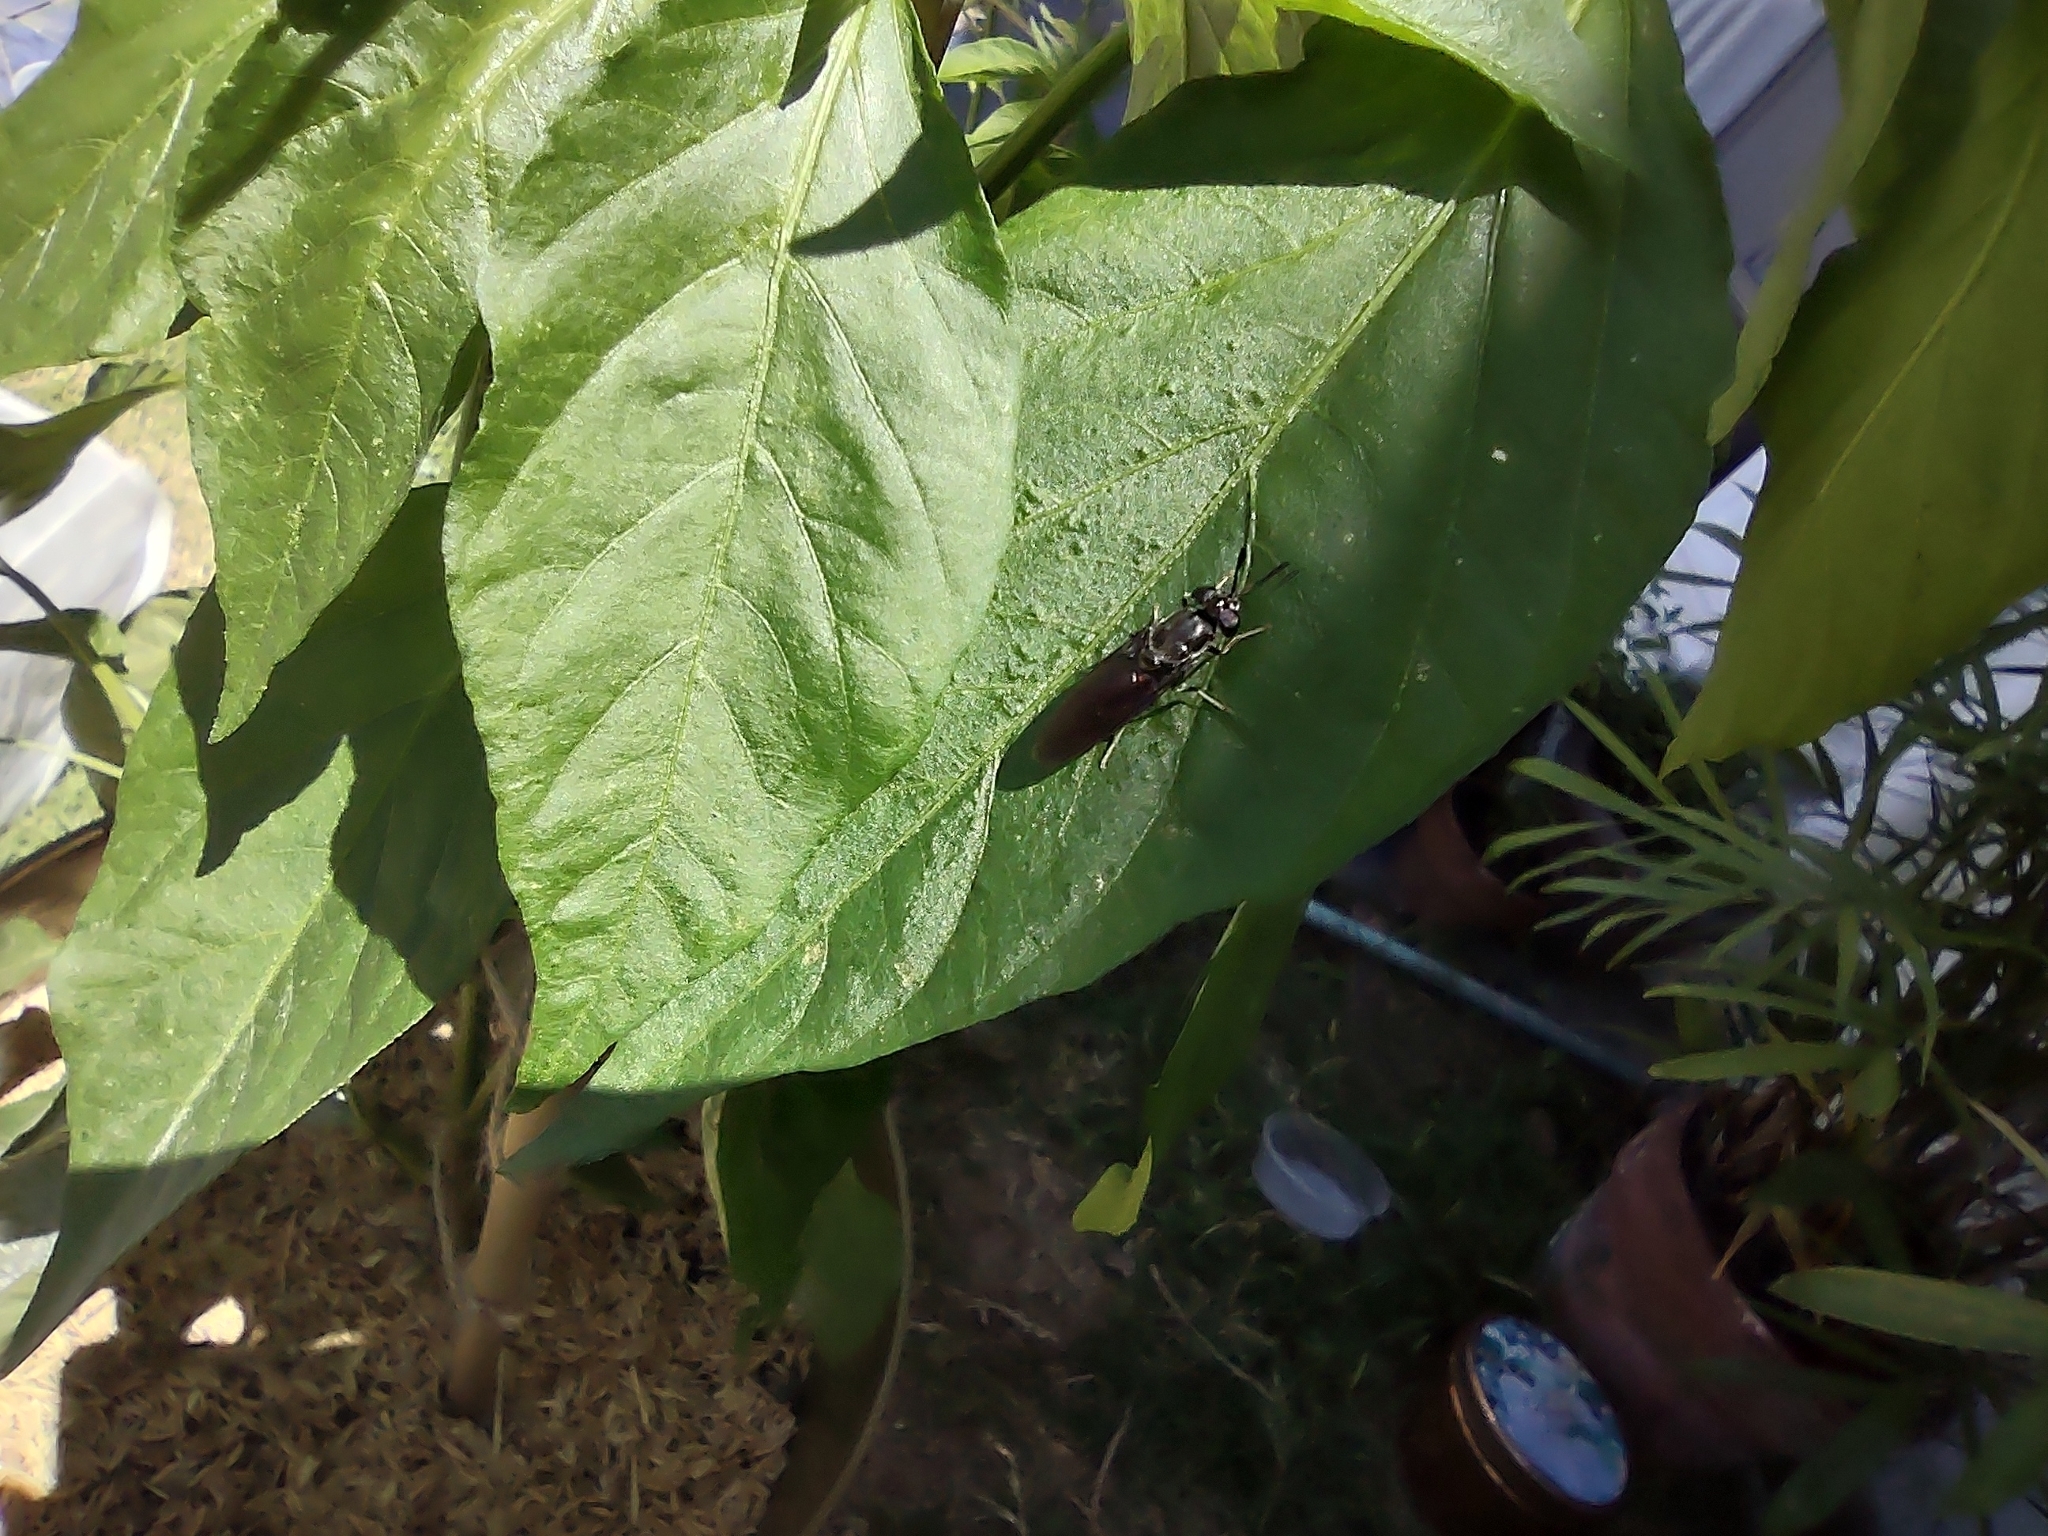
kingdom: Animalia
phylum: Arthropoda
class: Insecta
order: Diptera
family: Stratiomyidae
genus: Hermetia
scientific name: Hermetia illucens
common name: Black soldier fly
